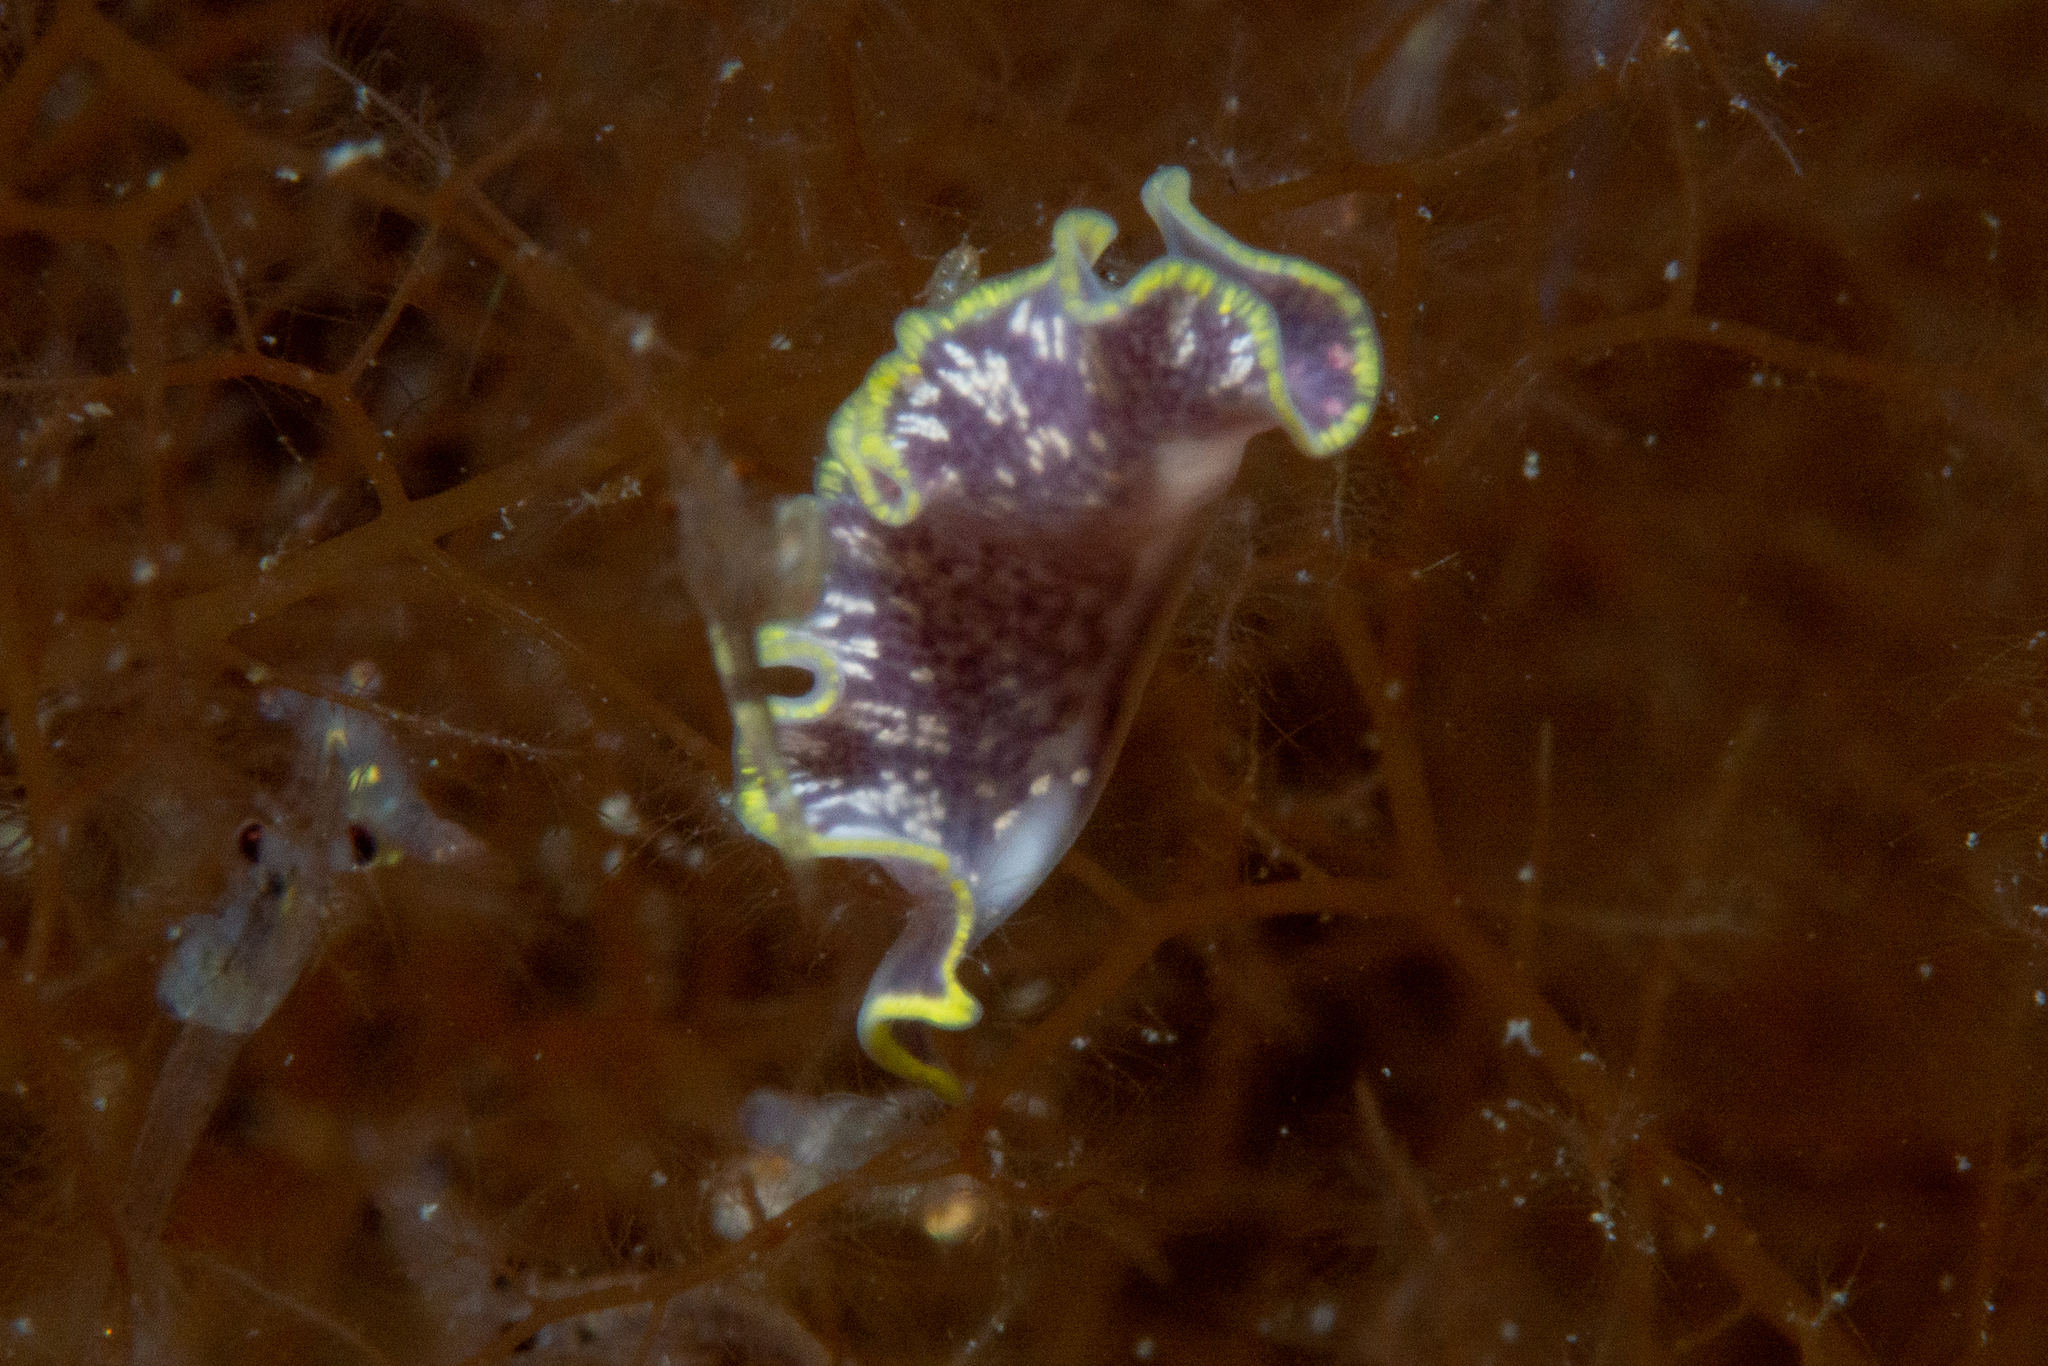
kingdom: Animalia
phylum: Platyhelminthes
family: Stylostomidae
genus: Cycloporus
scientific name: Cycloporus variegatus
